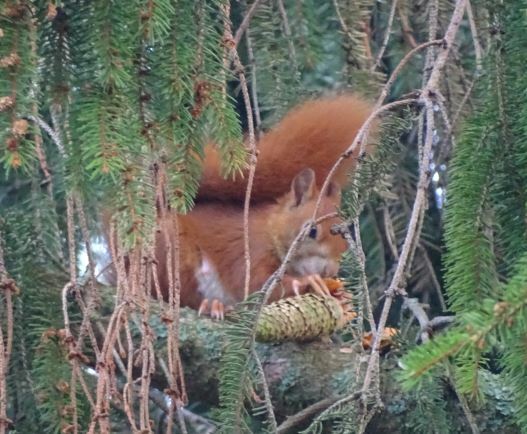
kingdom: Animalia
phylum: Chordata
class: Mammalia
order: Rodentia
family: Sciuridae
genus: Sciurus
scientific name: Sciurus vulgaris
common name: Eurasian red squirrel
